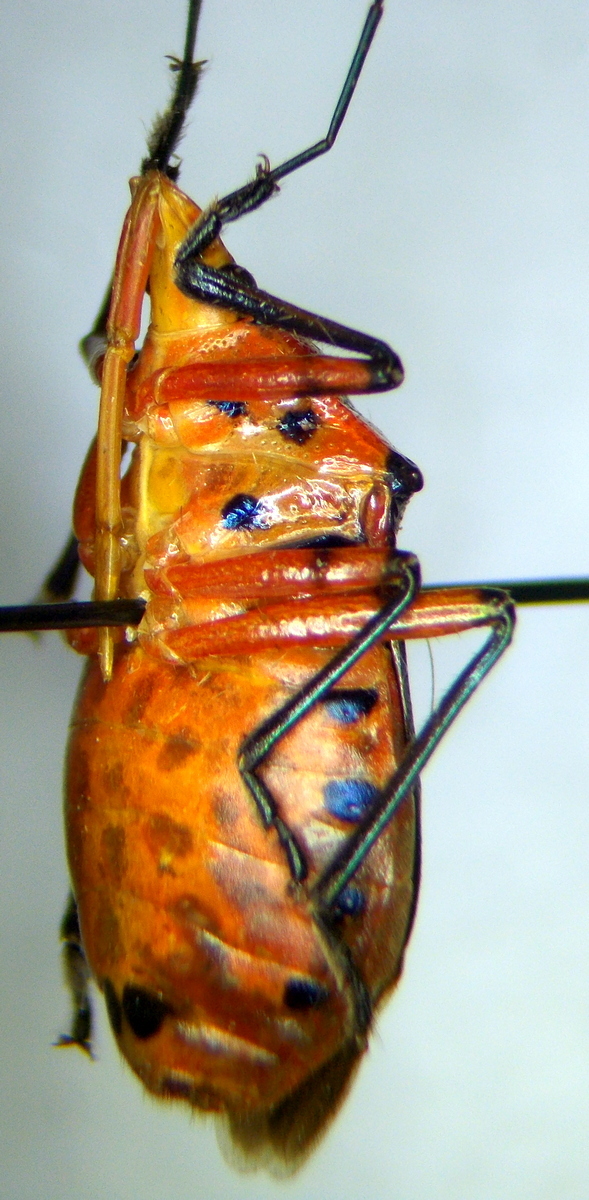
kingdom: Animalia
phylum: Arthropoda
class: Insecta
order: Hemiptera
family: Pentatomidae
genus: Euthyrhynchus
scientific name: Euthyrhynchus floridanus
